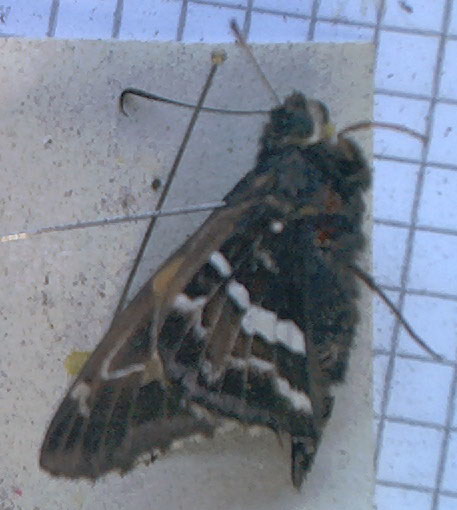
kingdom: Animalia
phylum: Arthropoda
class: Insecta
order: Lepidoptera
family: Hesperiidae
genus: Epargyreus
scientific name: Epargyreus barisses
